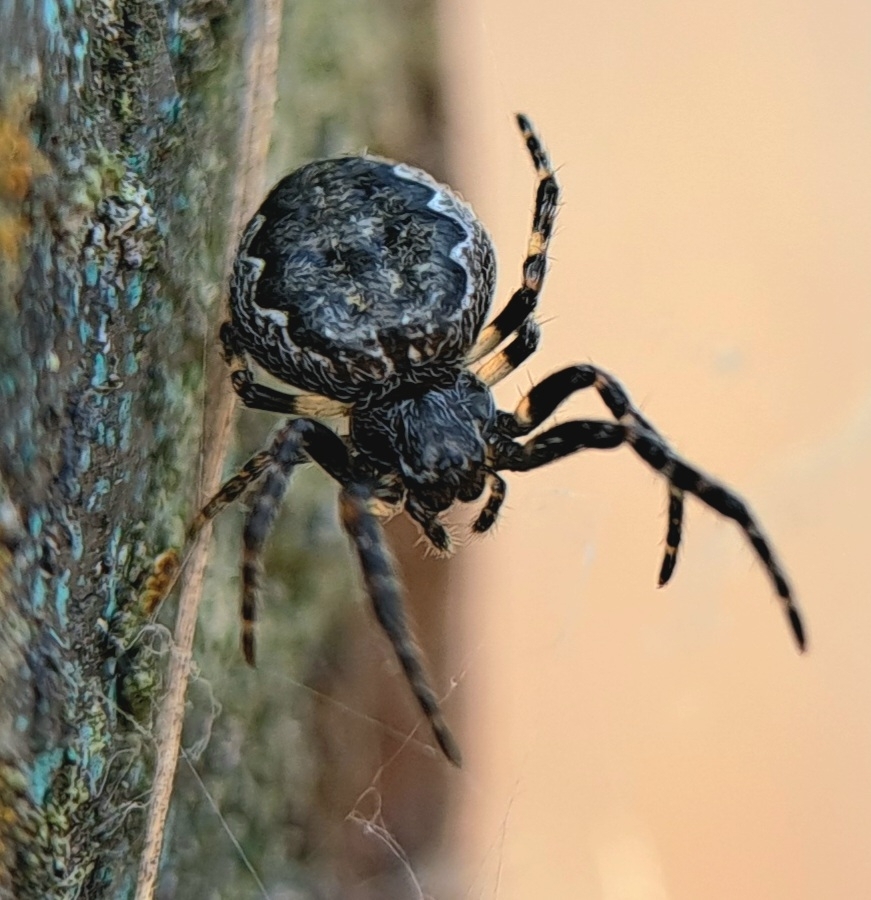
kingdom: Animalia
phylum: Arthropoda
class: Arachnida
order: Araneae
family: Araneidae
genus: Nuctenea
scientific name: Nuctenea umbratica
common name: Toad spider
